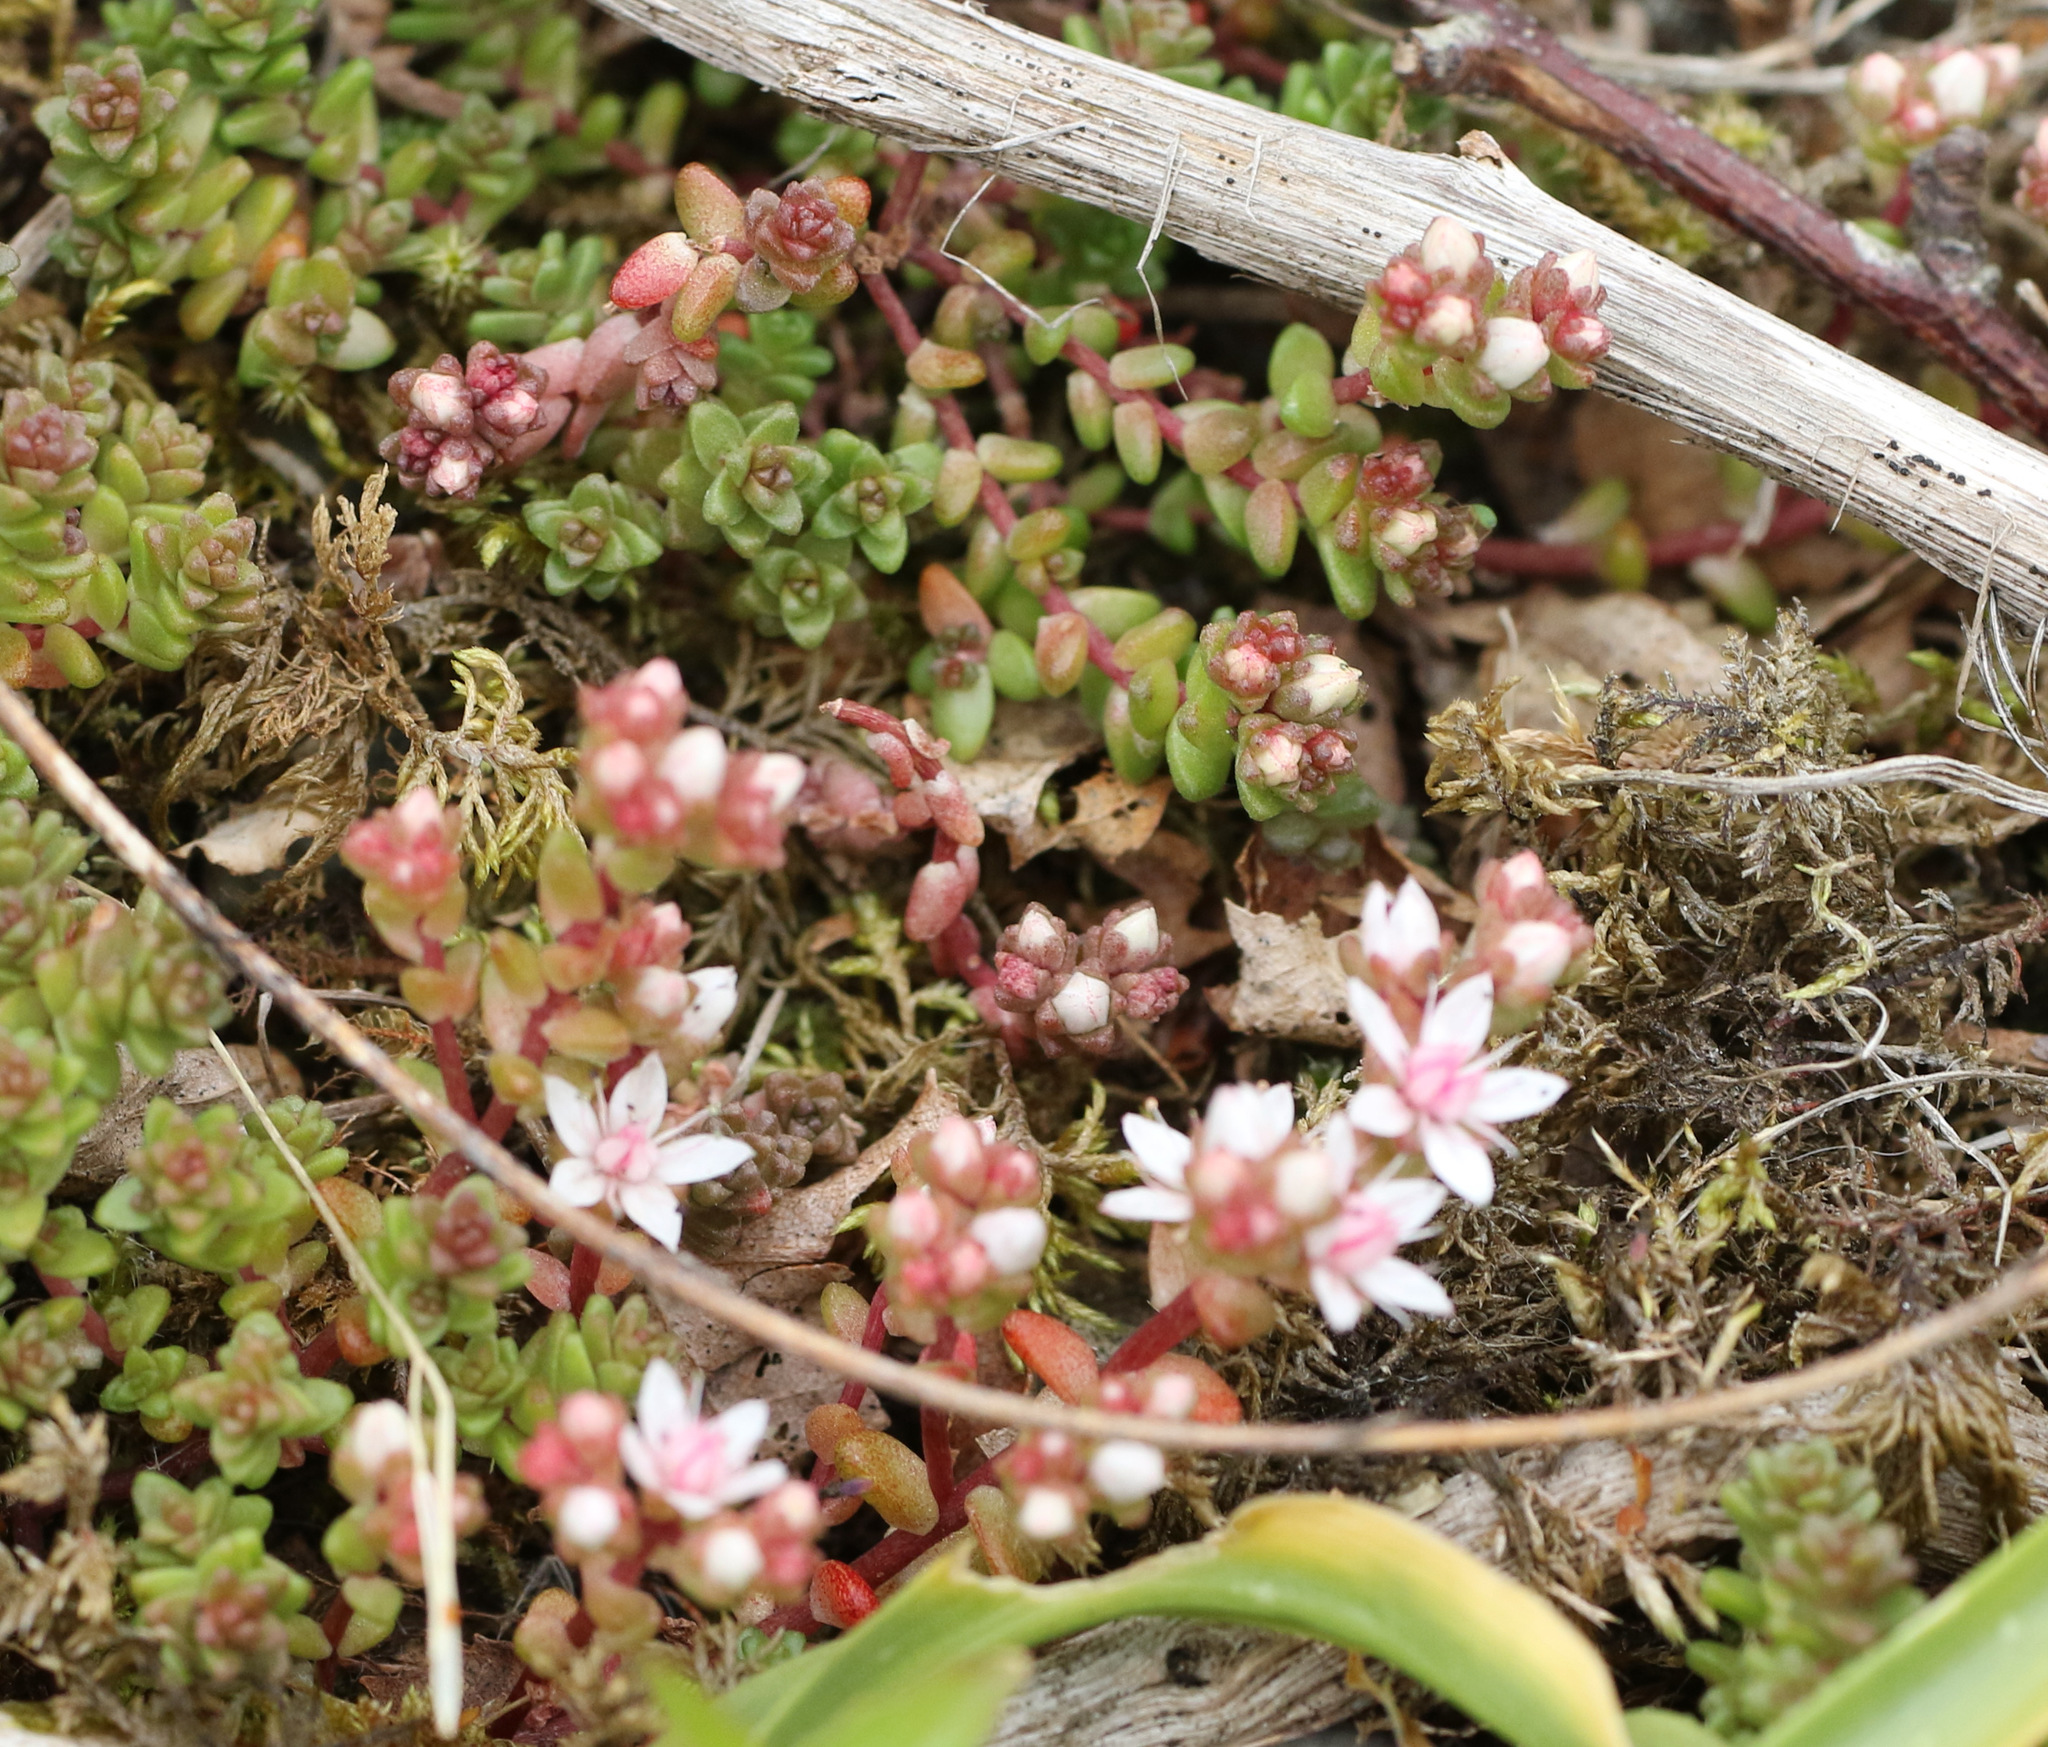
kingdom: Plantae
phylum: Tracheophyta
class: Magnoliopsida
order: Saxifragales
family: Crassulaceae
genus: Sedum
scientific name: Sedum anglicum
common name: English stonecrop
